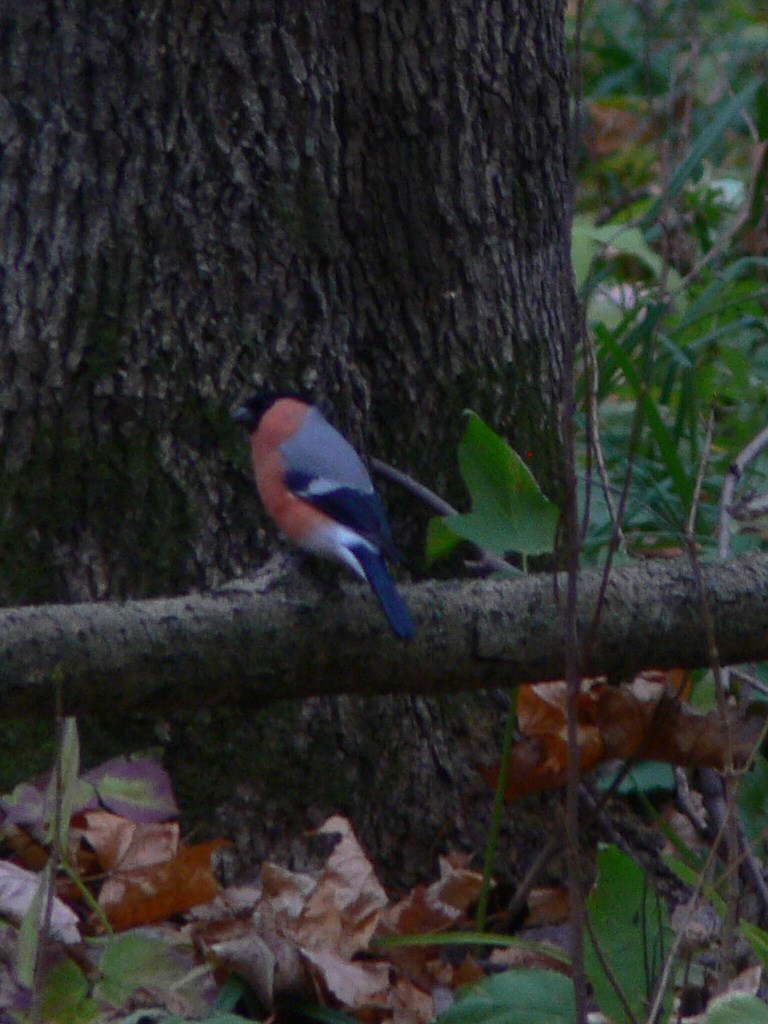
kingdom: Animalia
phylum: Chordata
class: Aves
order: Passeriformes
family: Fringillidae
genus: Pyrrhula
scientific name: Pyrrhula pyrrhula
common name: Eurasian bullfinch
